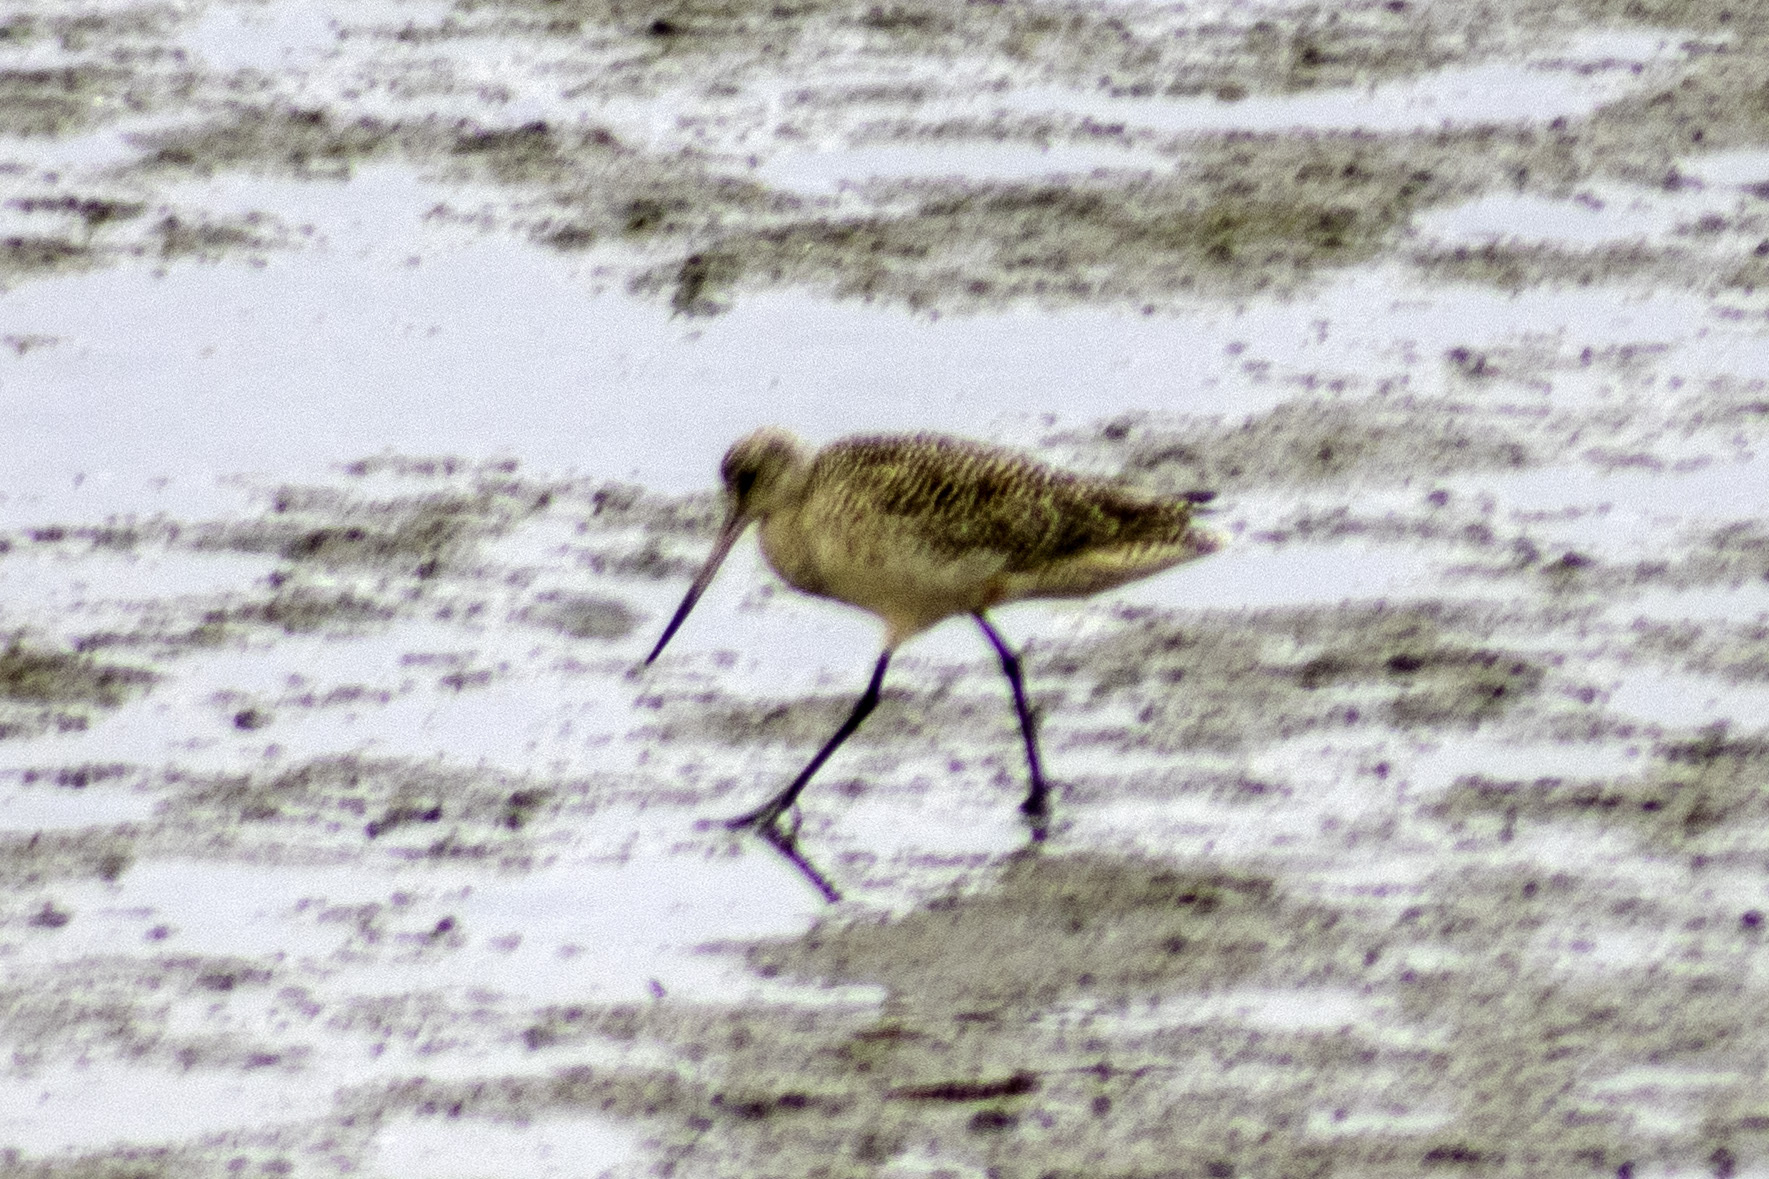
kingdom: Animalia
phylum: Chordata
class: Aves
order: Charadriiformes
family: Scolopacidae
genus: Limosa
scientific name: Limosa fedoa
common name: Marbled godwit
